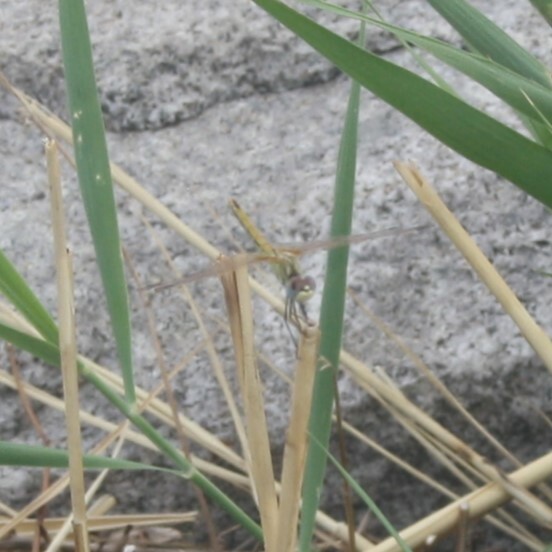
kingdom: Animalia
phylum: Arthropoda
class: Insecta
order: Odonata
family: Libellulidae
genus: Sympetrum
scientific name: Sympetrum fonscolombii
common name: Red-veined darter
